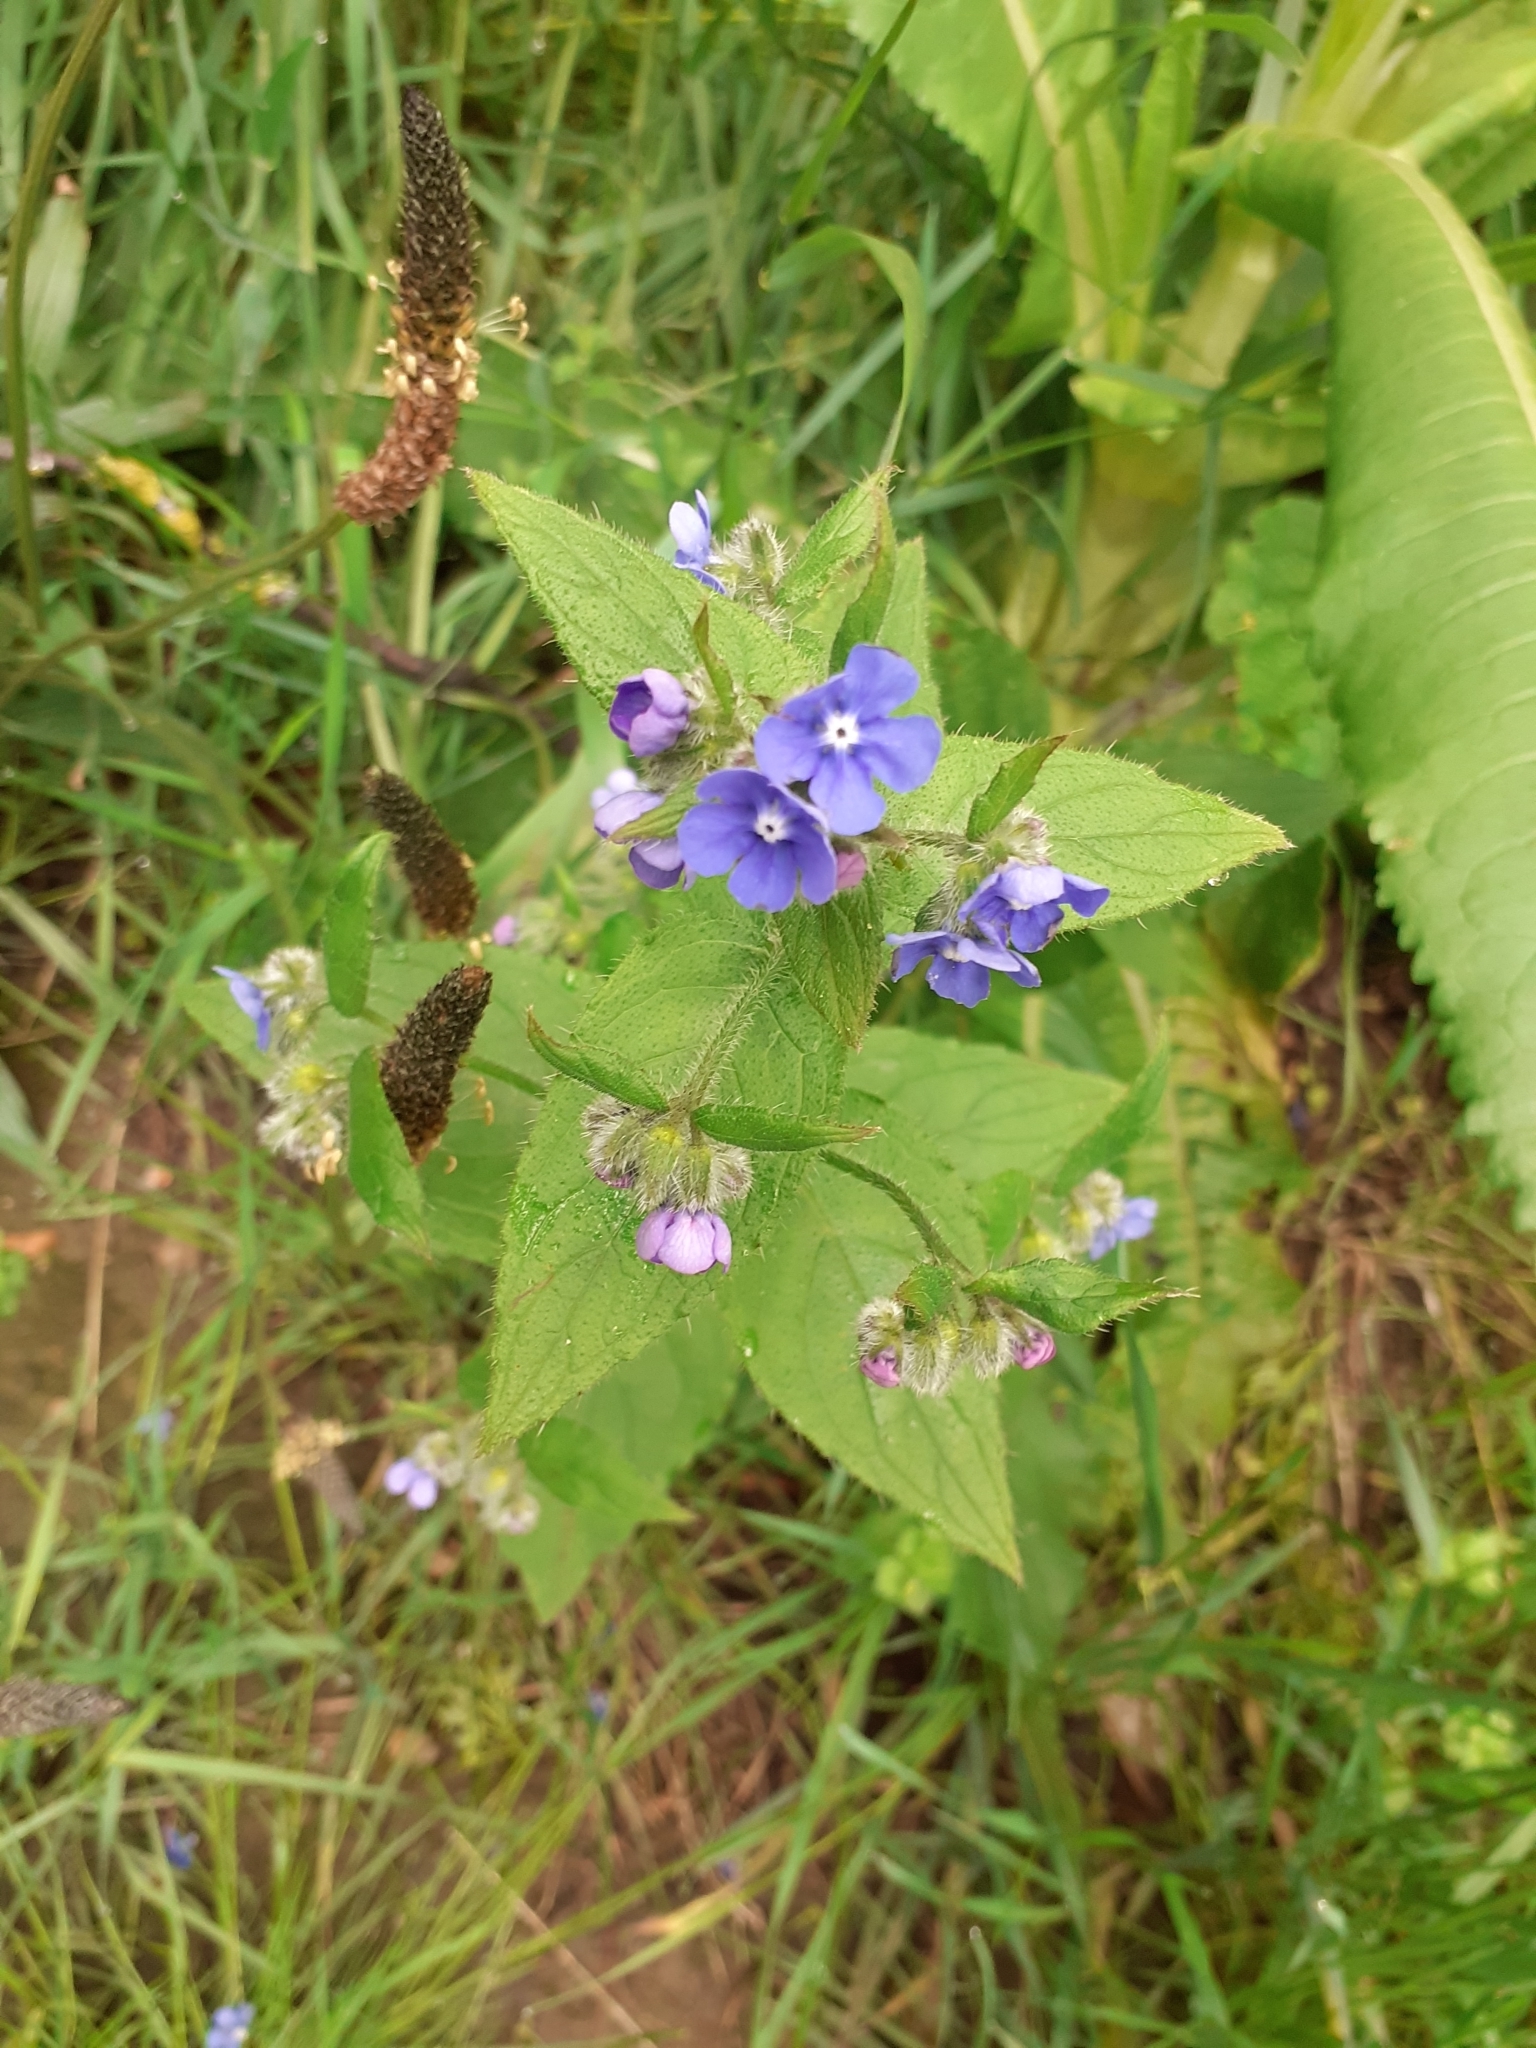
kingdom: Plantae
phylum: Tracheophyta
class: Magnoliopsida
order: Boraginales
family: Boraginaceae
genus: Pentaglottis
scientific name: Pentaglottis sempervirens
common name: Green alkanet
